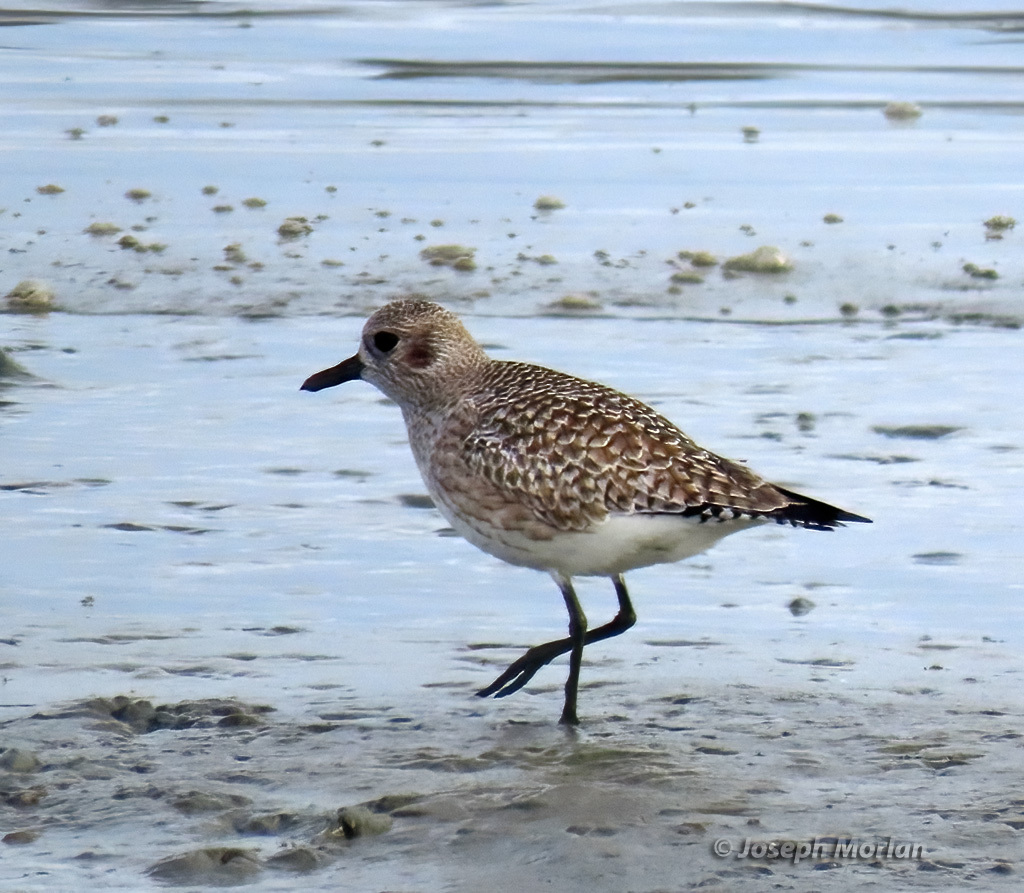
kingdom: Animalia
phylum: Chordata
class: Aves
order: Charadriiformes
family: Charadriidae
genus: Pluvialis
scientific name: Pluvialis squatarola
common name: Grey plover
